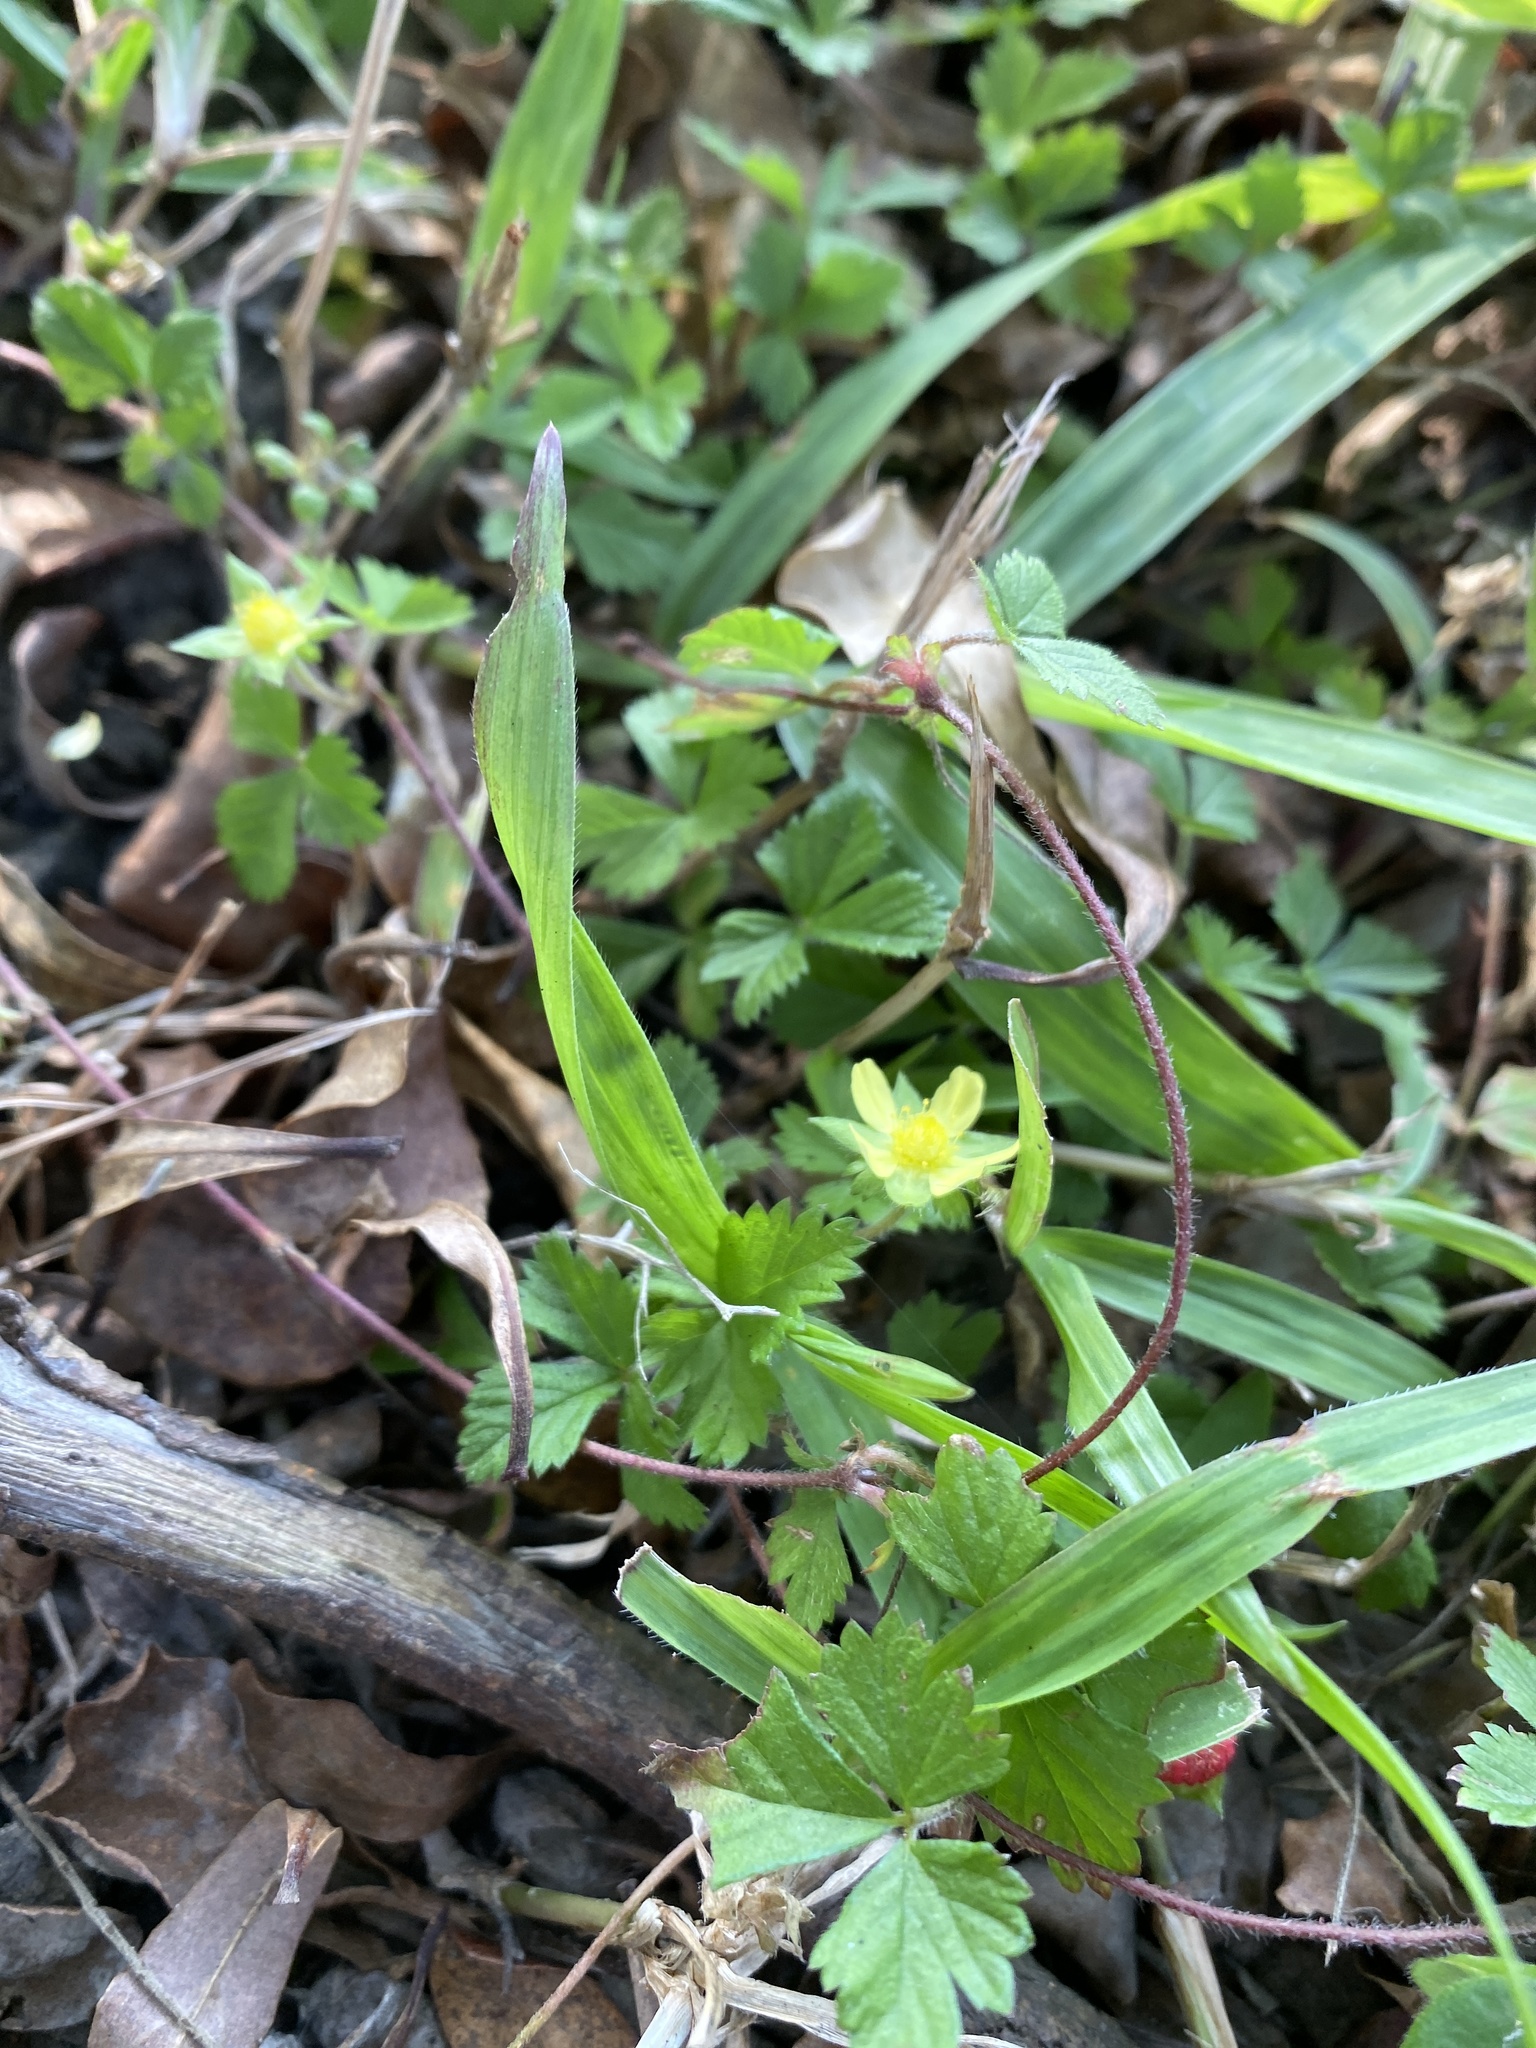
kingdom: Plantae
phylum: Tracheophyta
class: Magnoliopsida
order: Rosales
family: Rosaceae
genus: Potentilla
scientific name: Potentilla wallichiana
